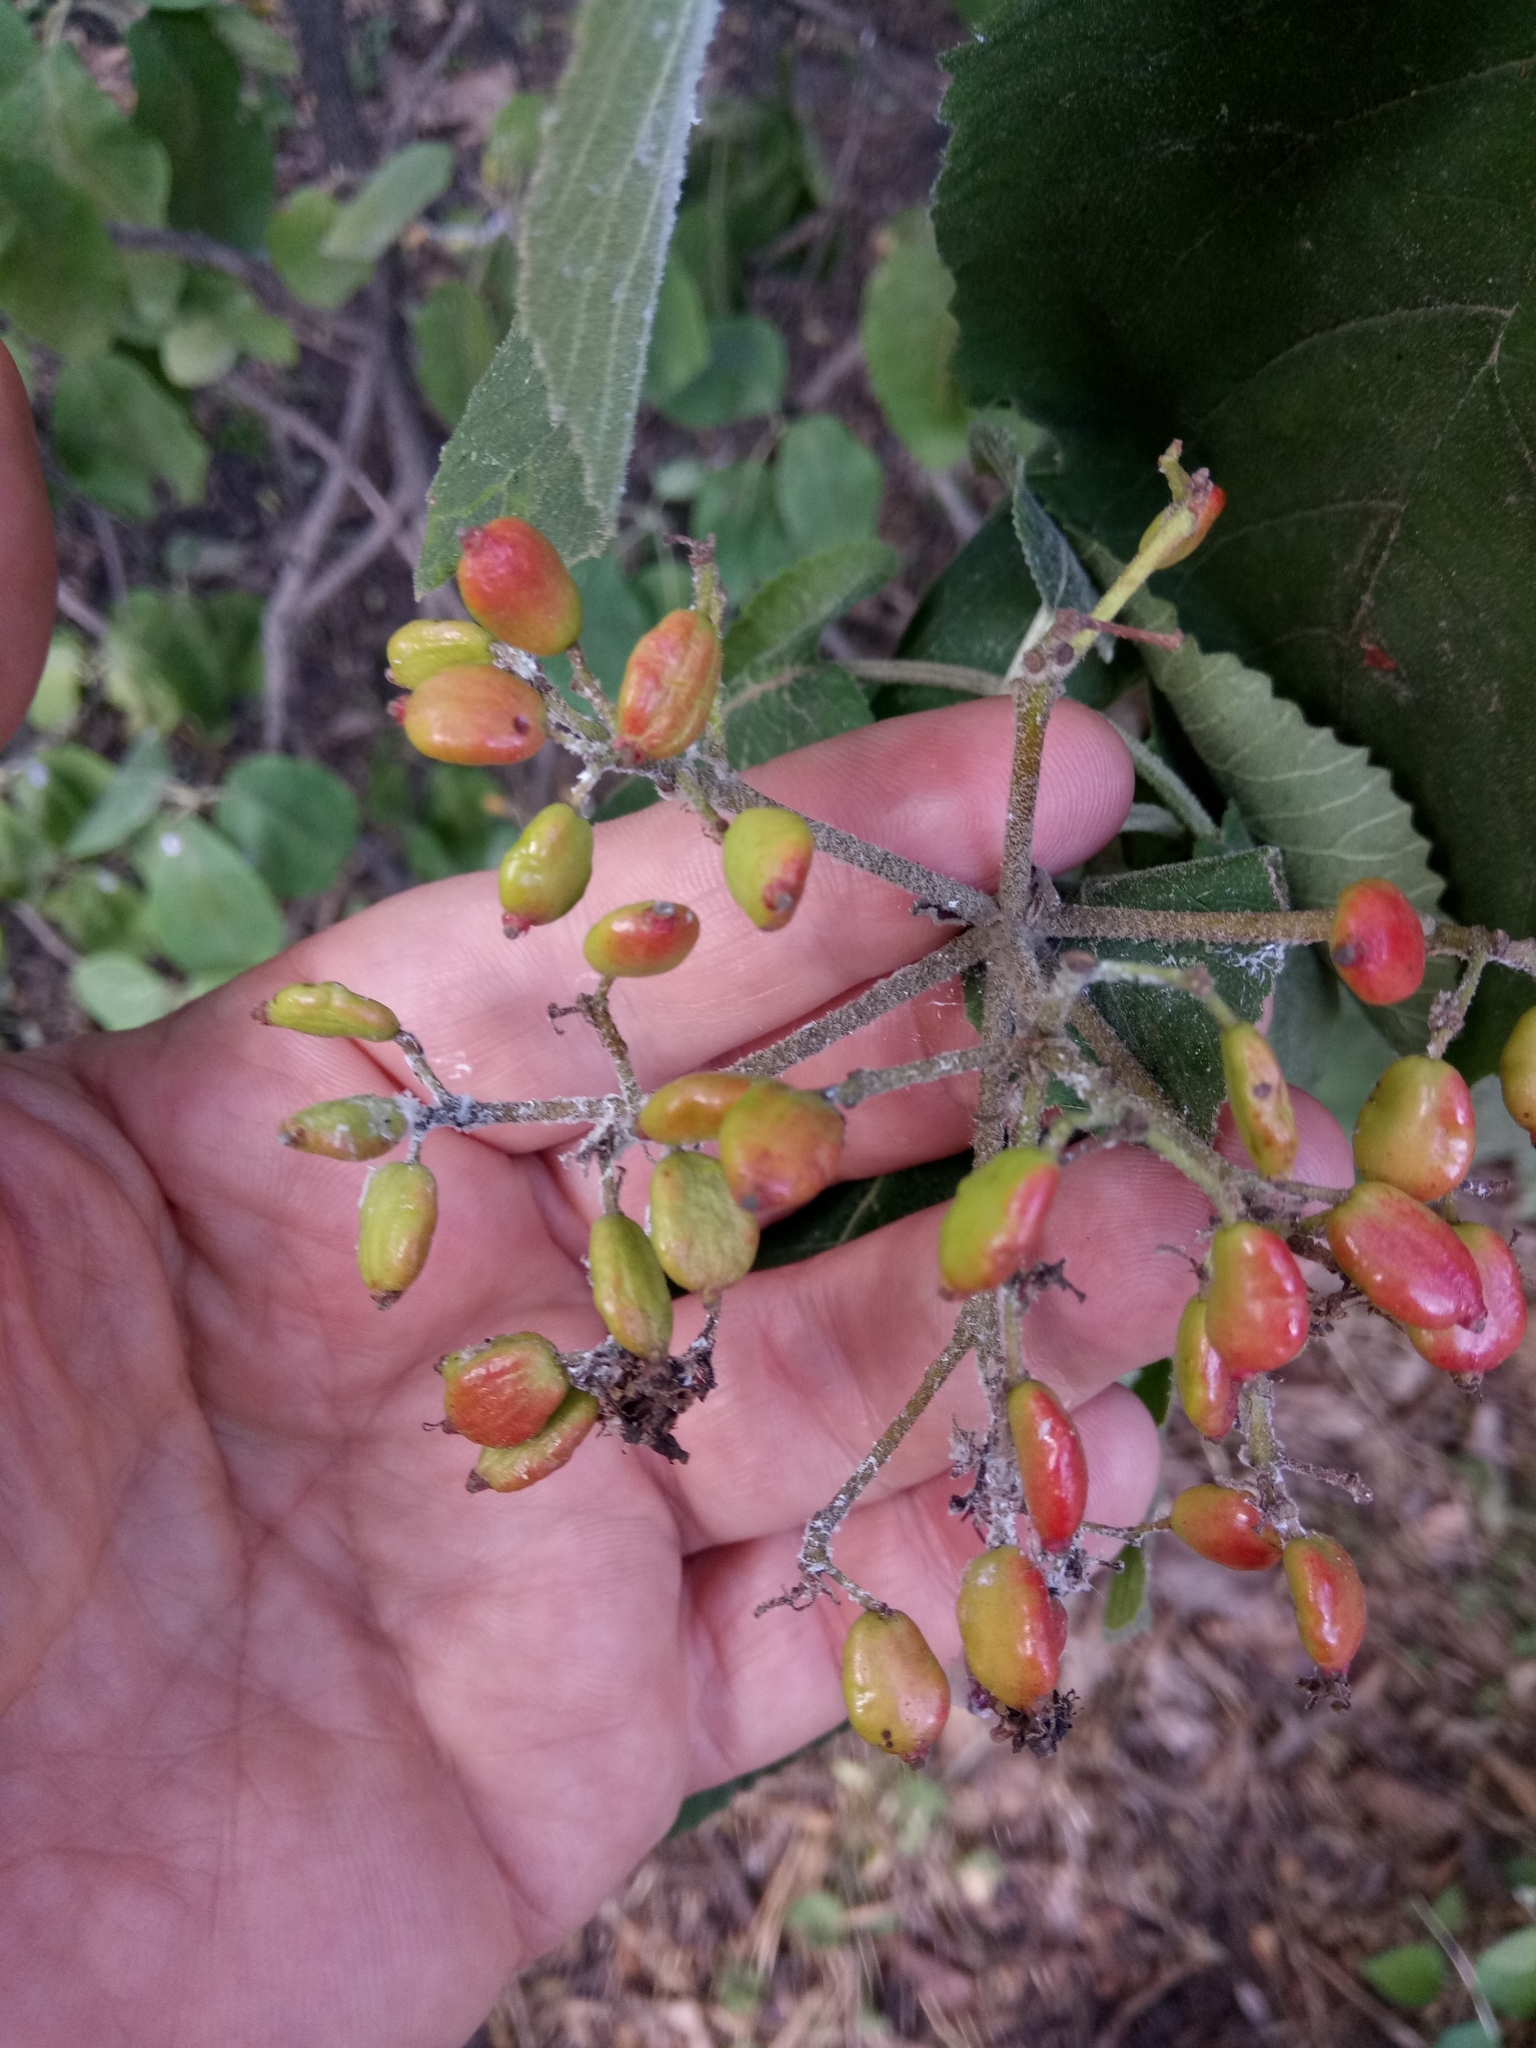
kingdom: Plantae
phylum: Tracheophyta
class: Magnoliopsida
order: Dipsacales
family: Viburnaceae
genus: Viburnum
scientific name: Viburnum lantana
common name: Wayfaring tree
